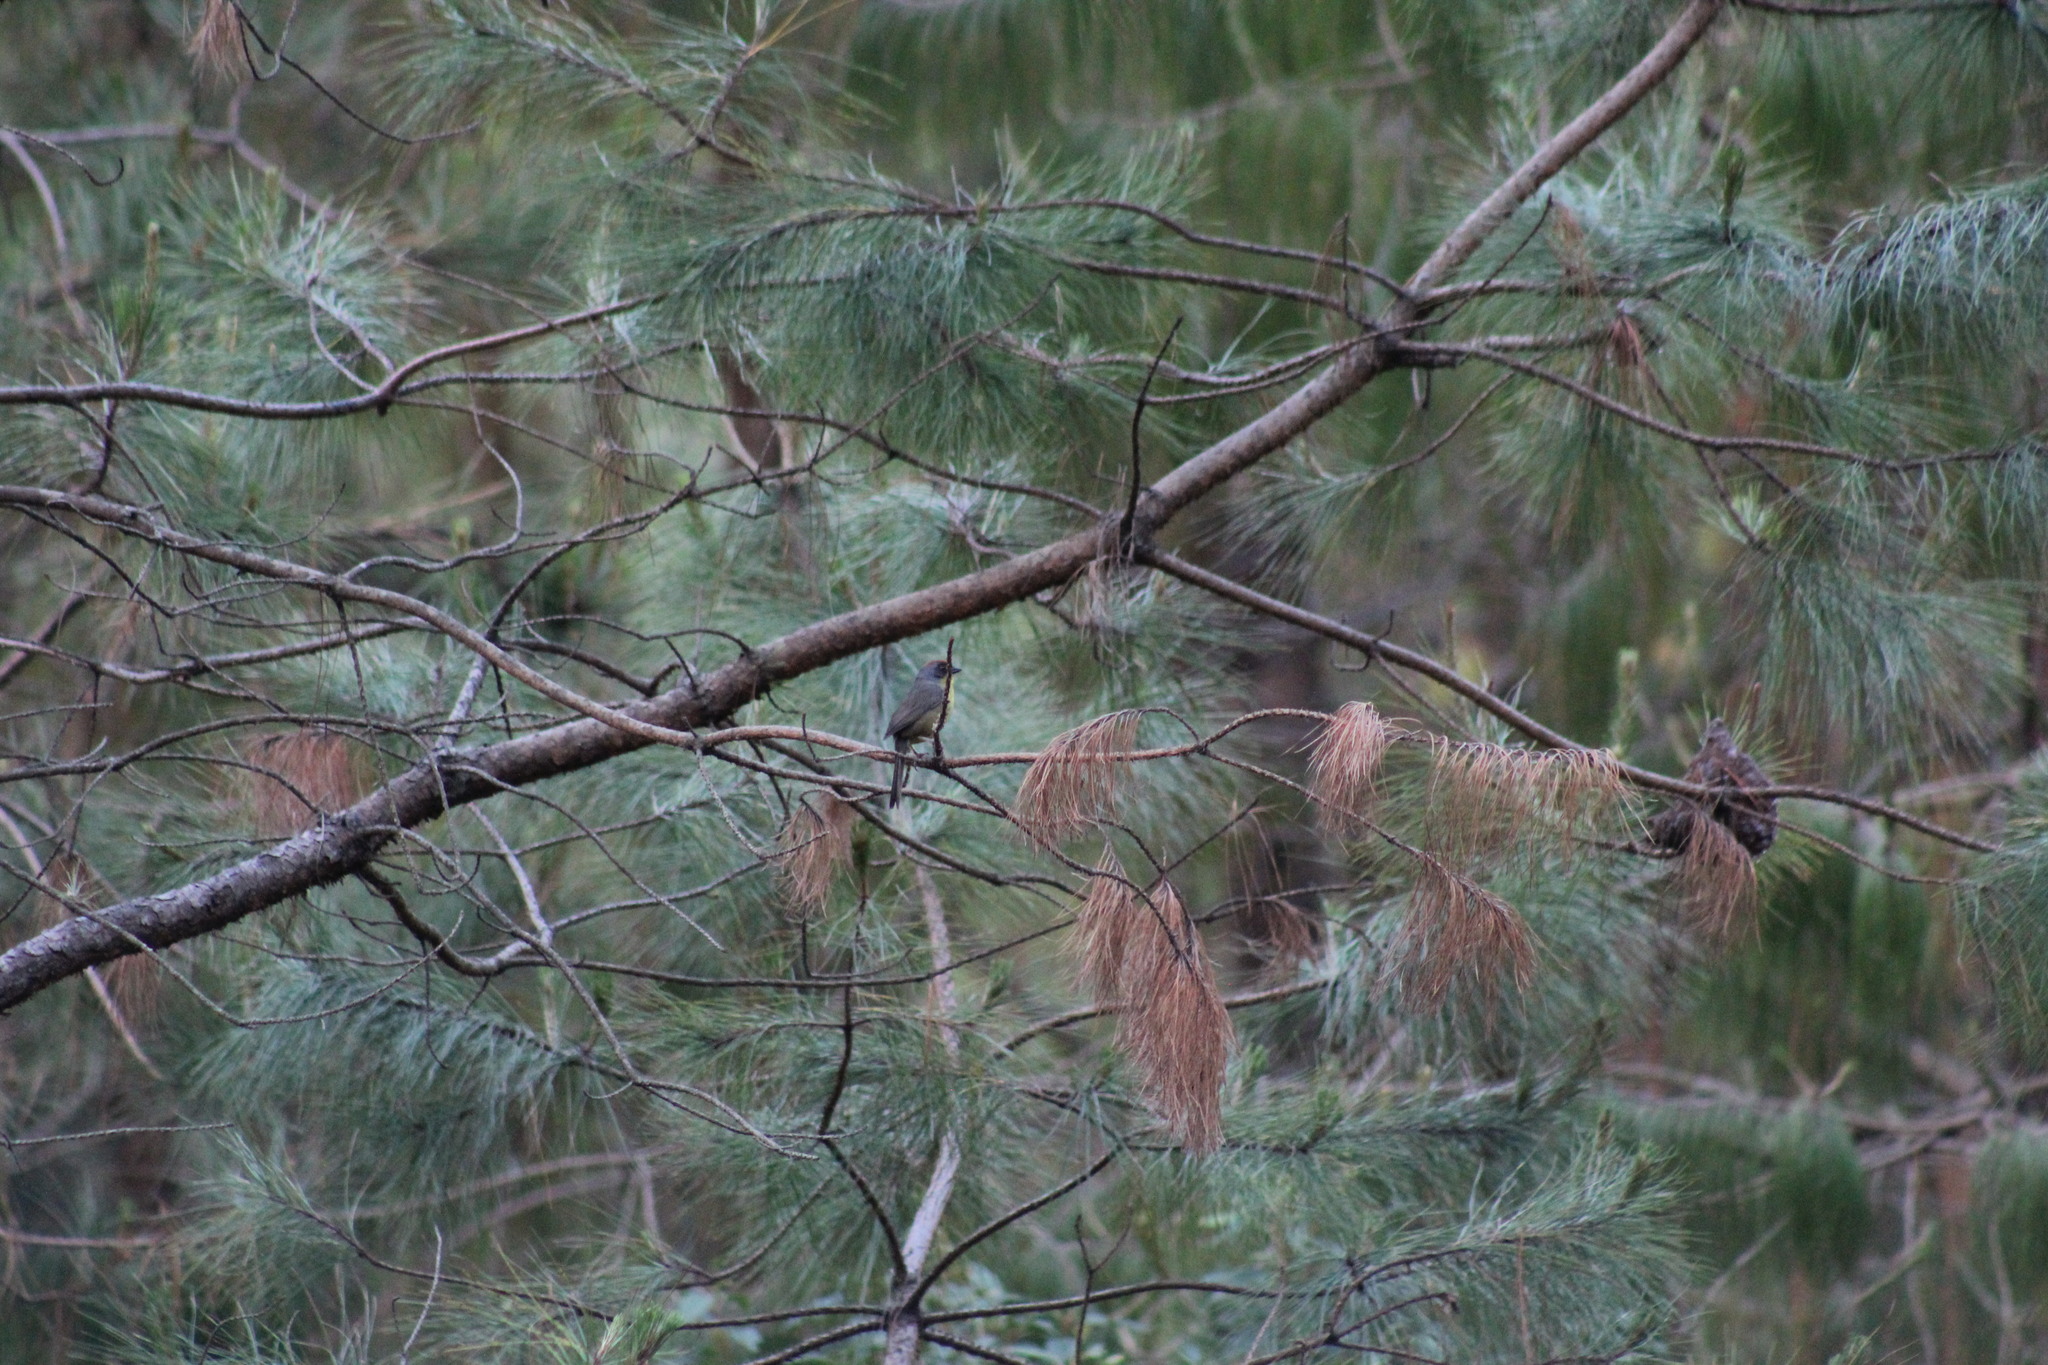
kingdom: Animalia
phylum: Chordata
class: Aves
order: Passeriformes
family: Passerellidae
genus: Atlapetes
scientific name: Atlapetes pileatus
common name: Rufous-capped brush-finch
